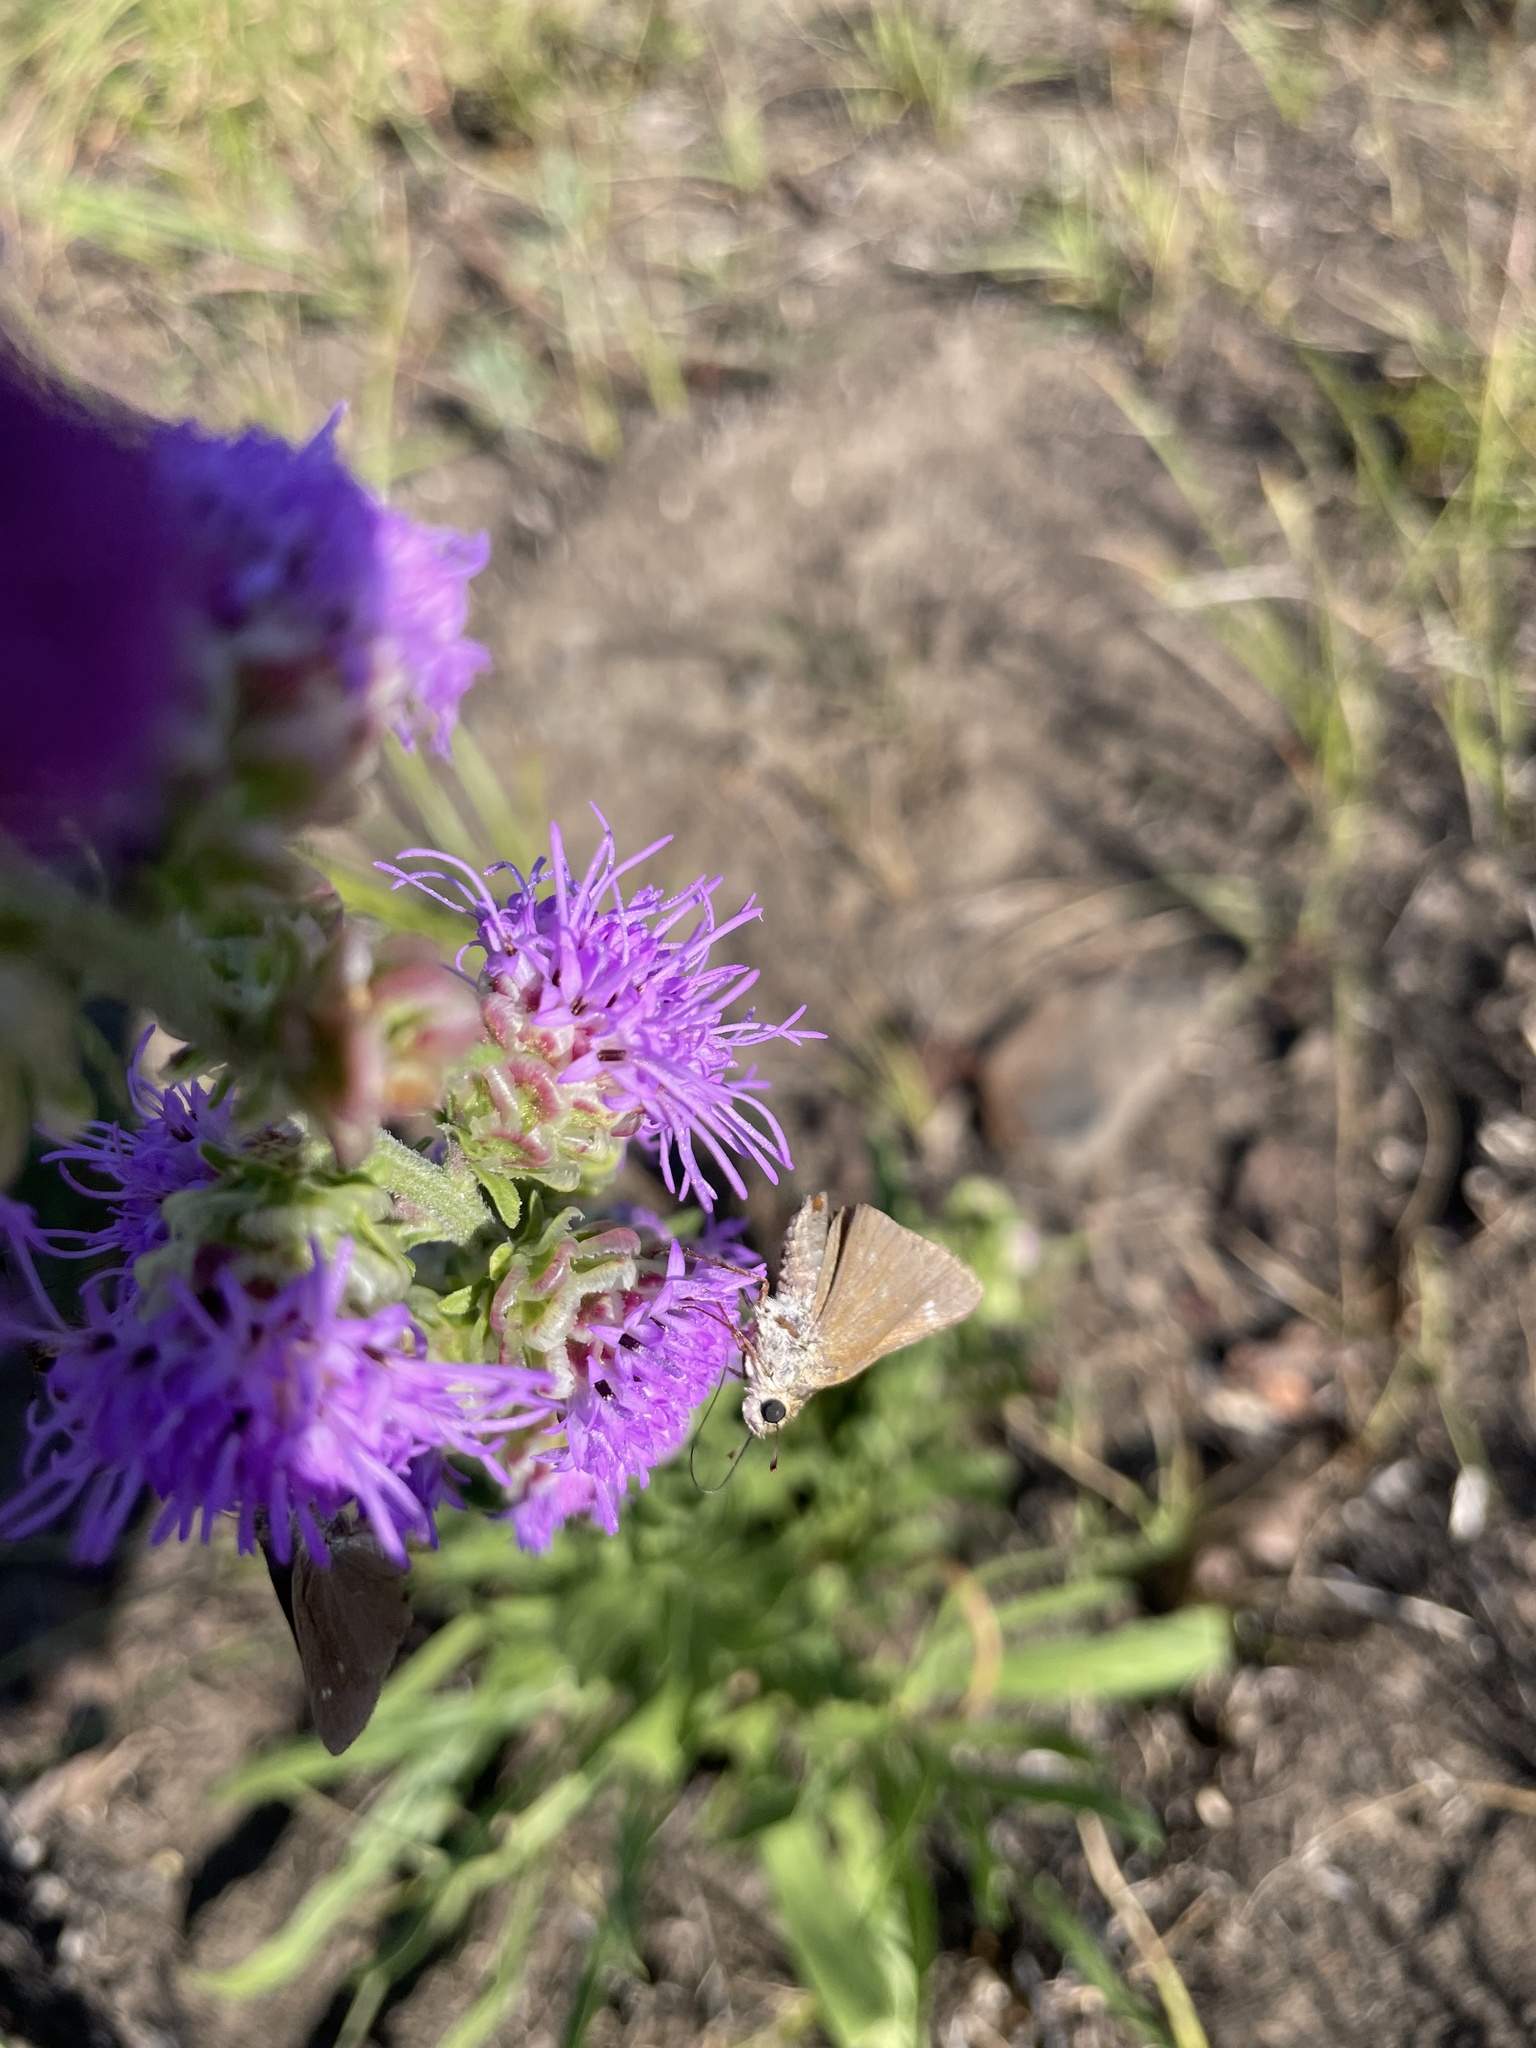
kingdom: Animalia
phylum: Arthropoda
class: Insecta
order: Lepidoptera
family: Hesperiidae
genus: Polites
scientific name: Polites origenes
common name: Crossline skipper
